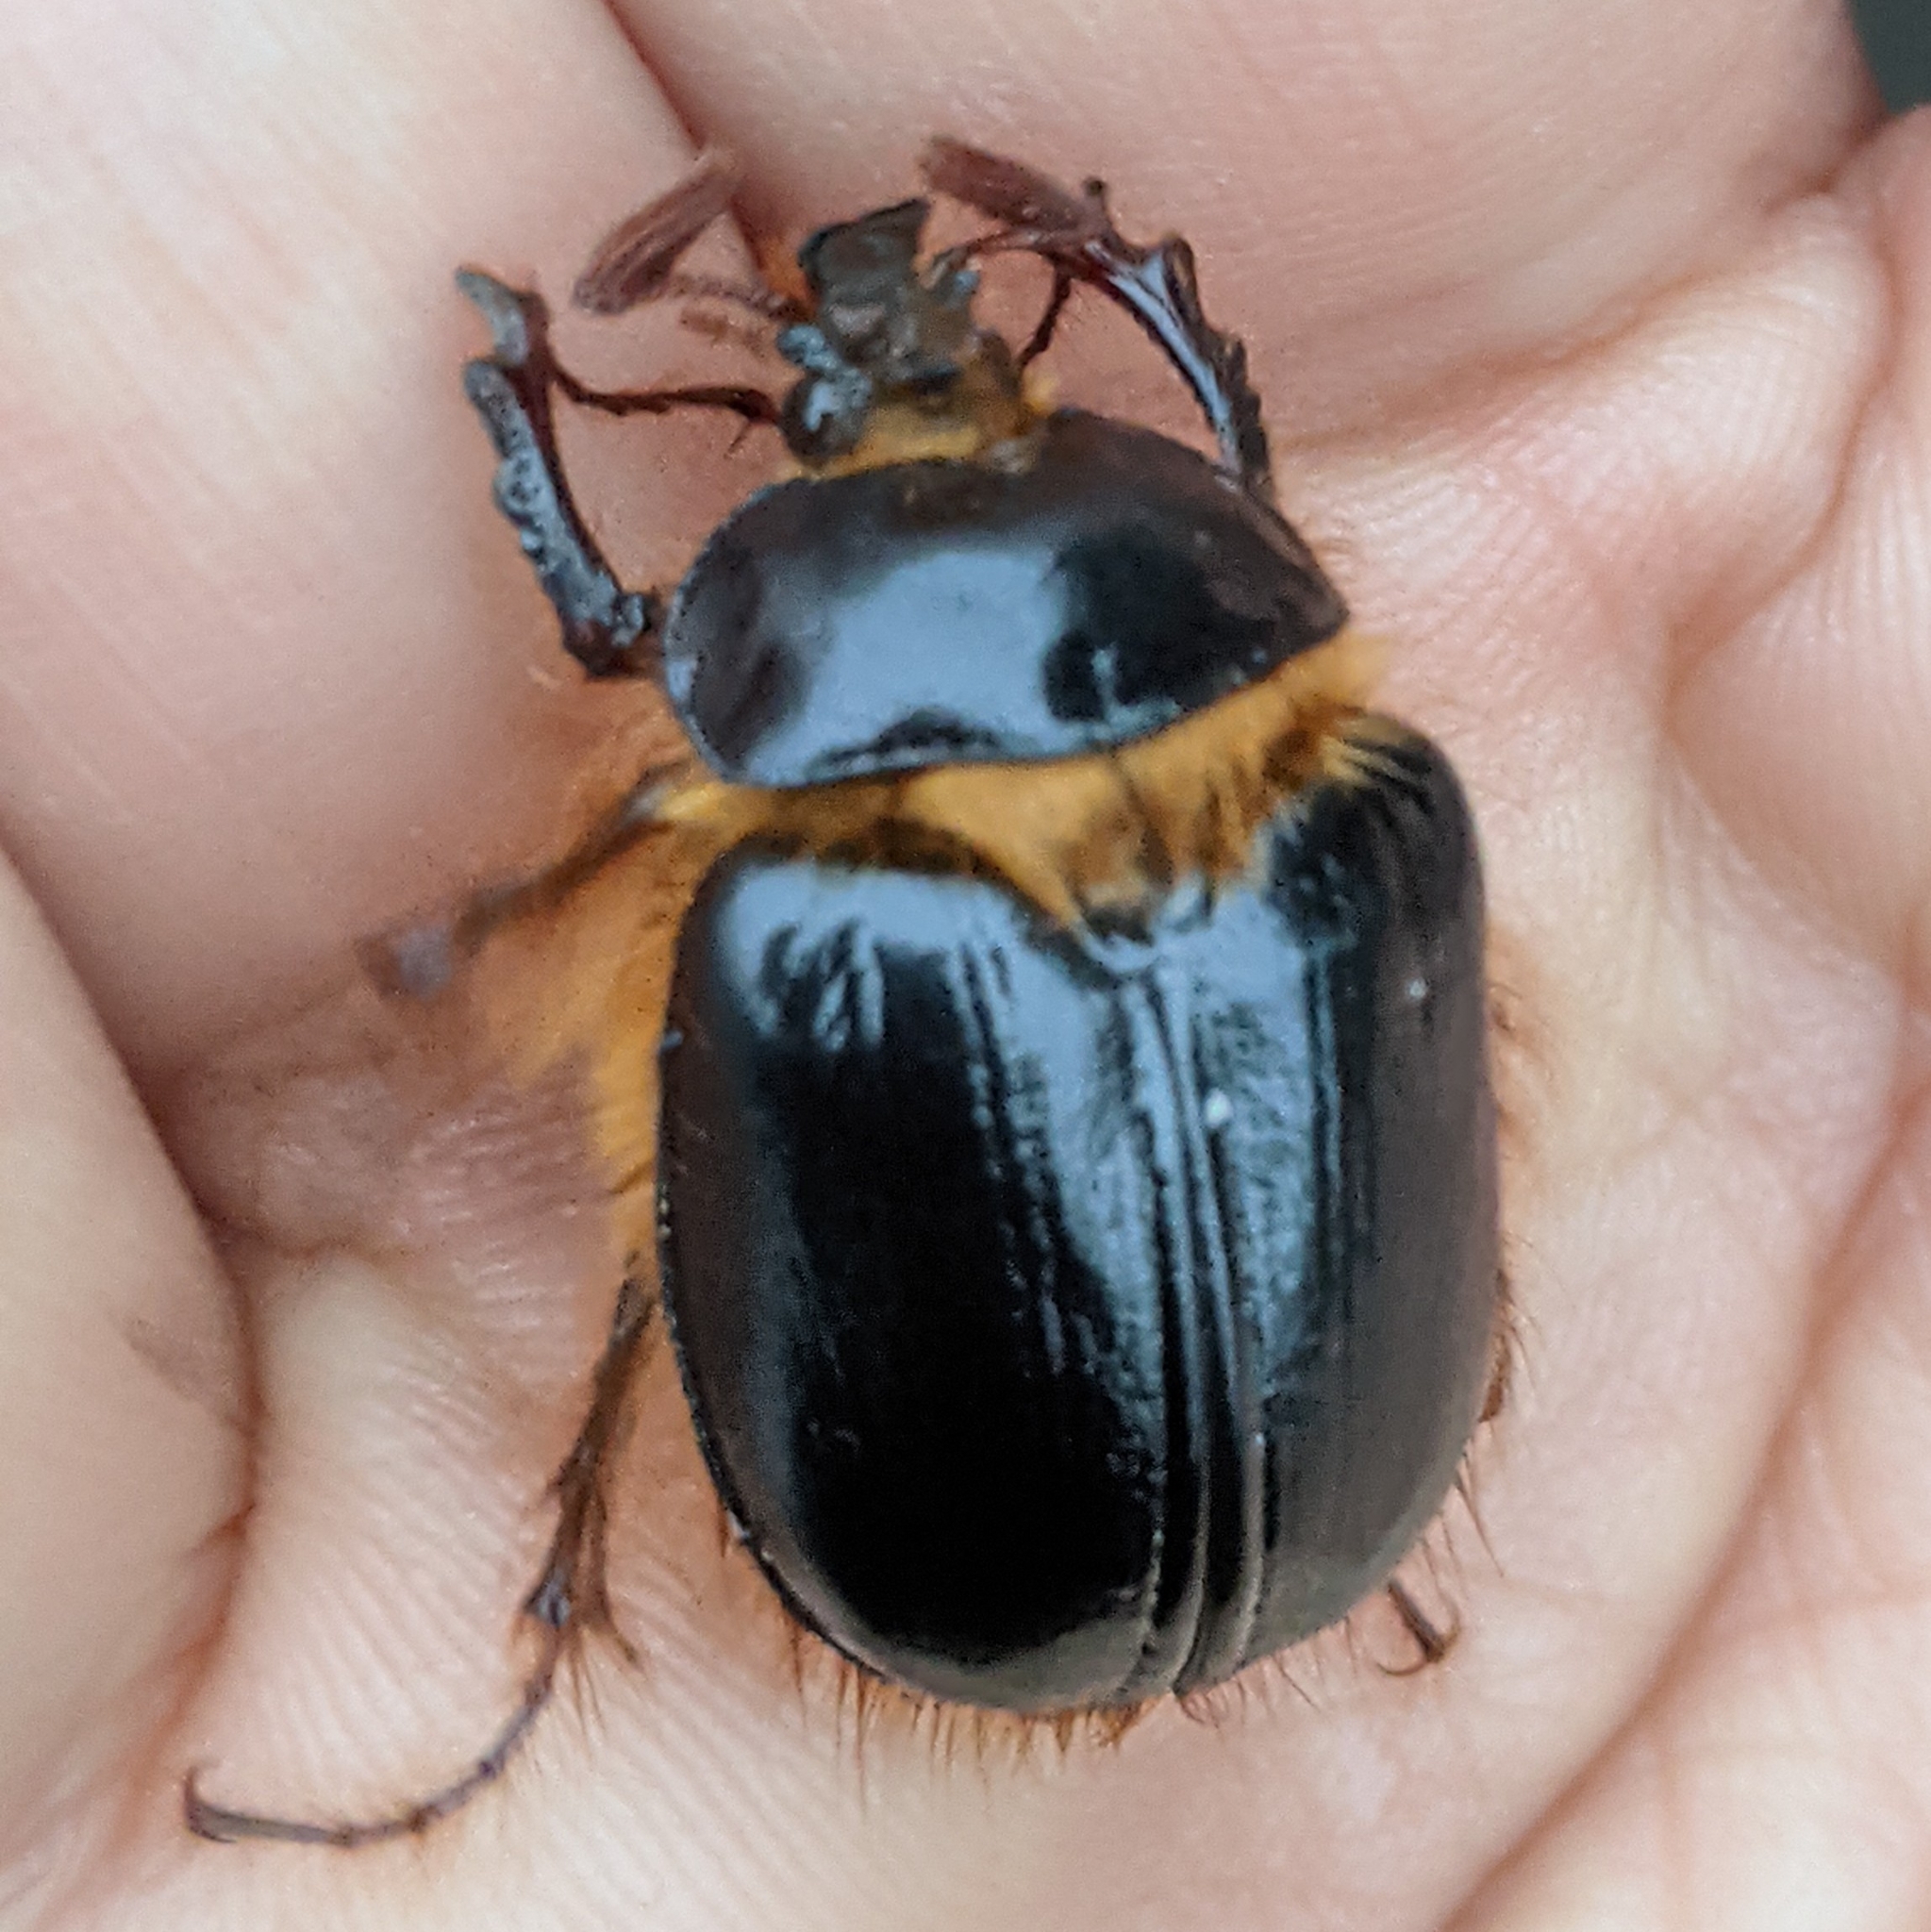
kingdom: Animalia
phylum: Arthropoda
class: Insecta
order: Coleoptera
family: Pleocomidae
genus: Pleocoma
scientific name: Pleocoma behrensi
